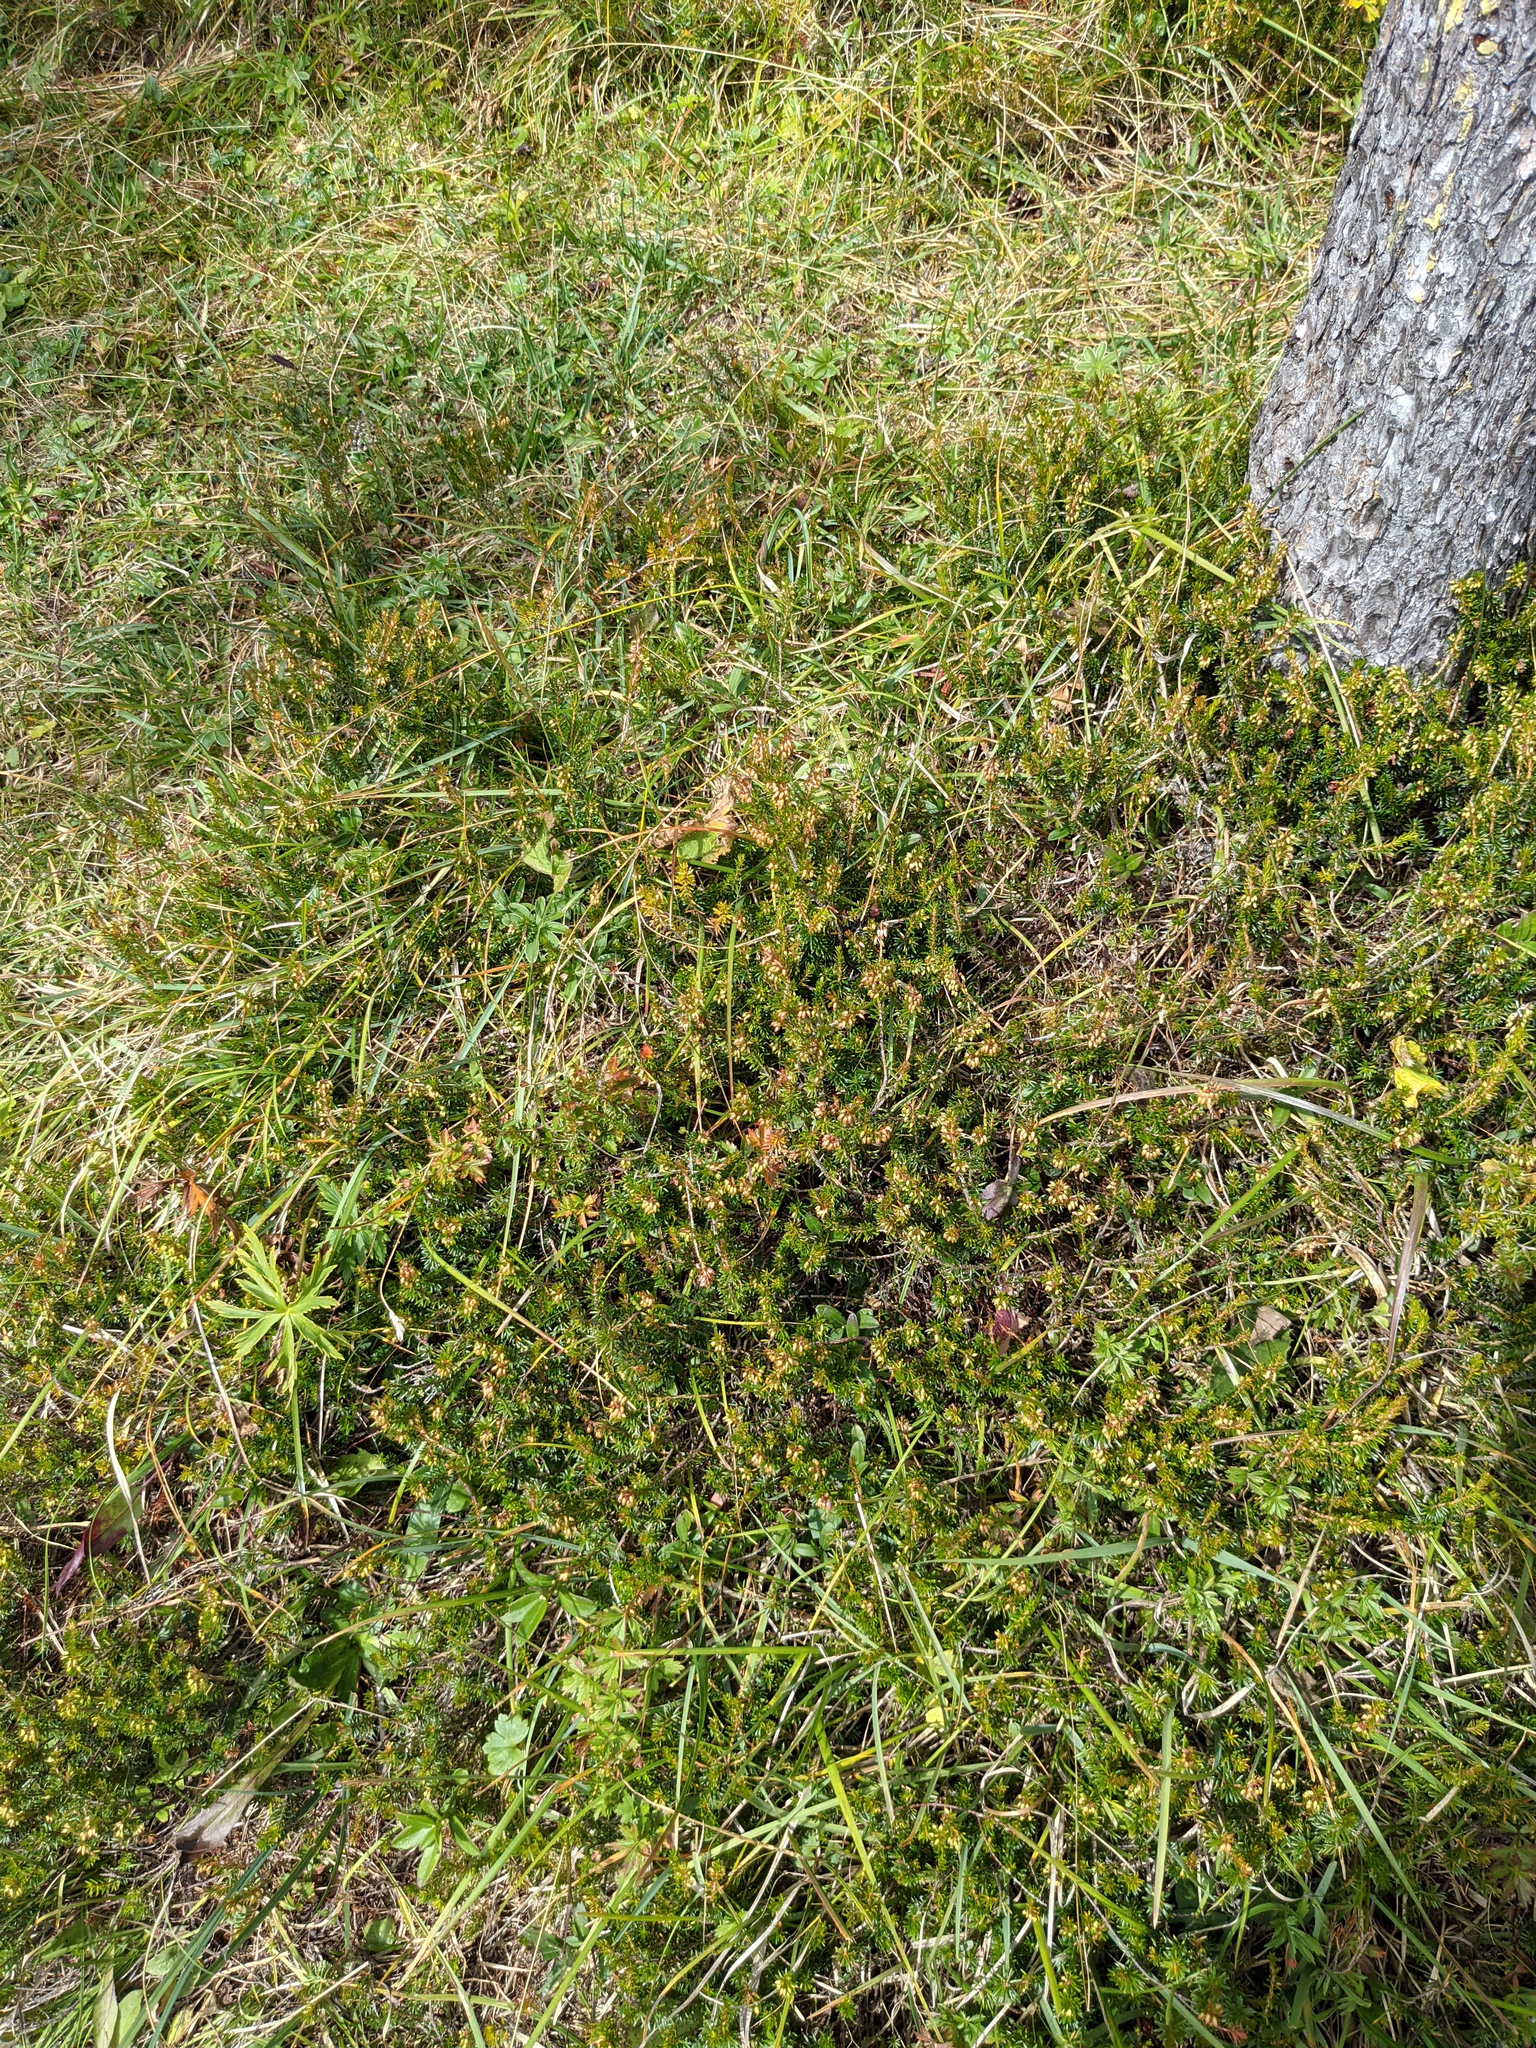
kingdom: Plantae
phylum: Tracheophyta
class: Magnoliopsida
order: Ericales
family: Ericaceae
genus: Erica
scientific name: Erica carnea
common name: Winter heath
